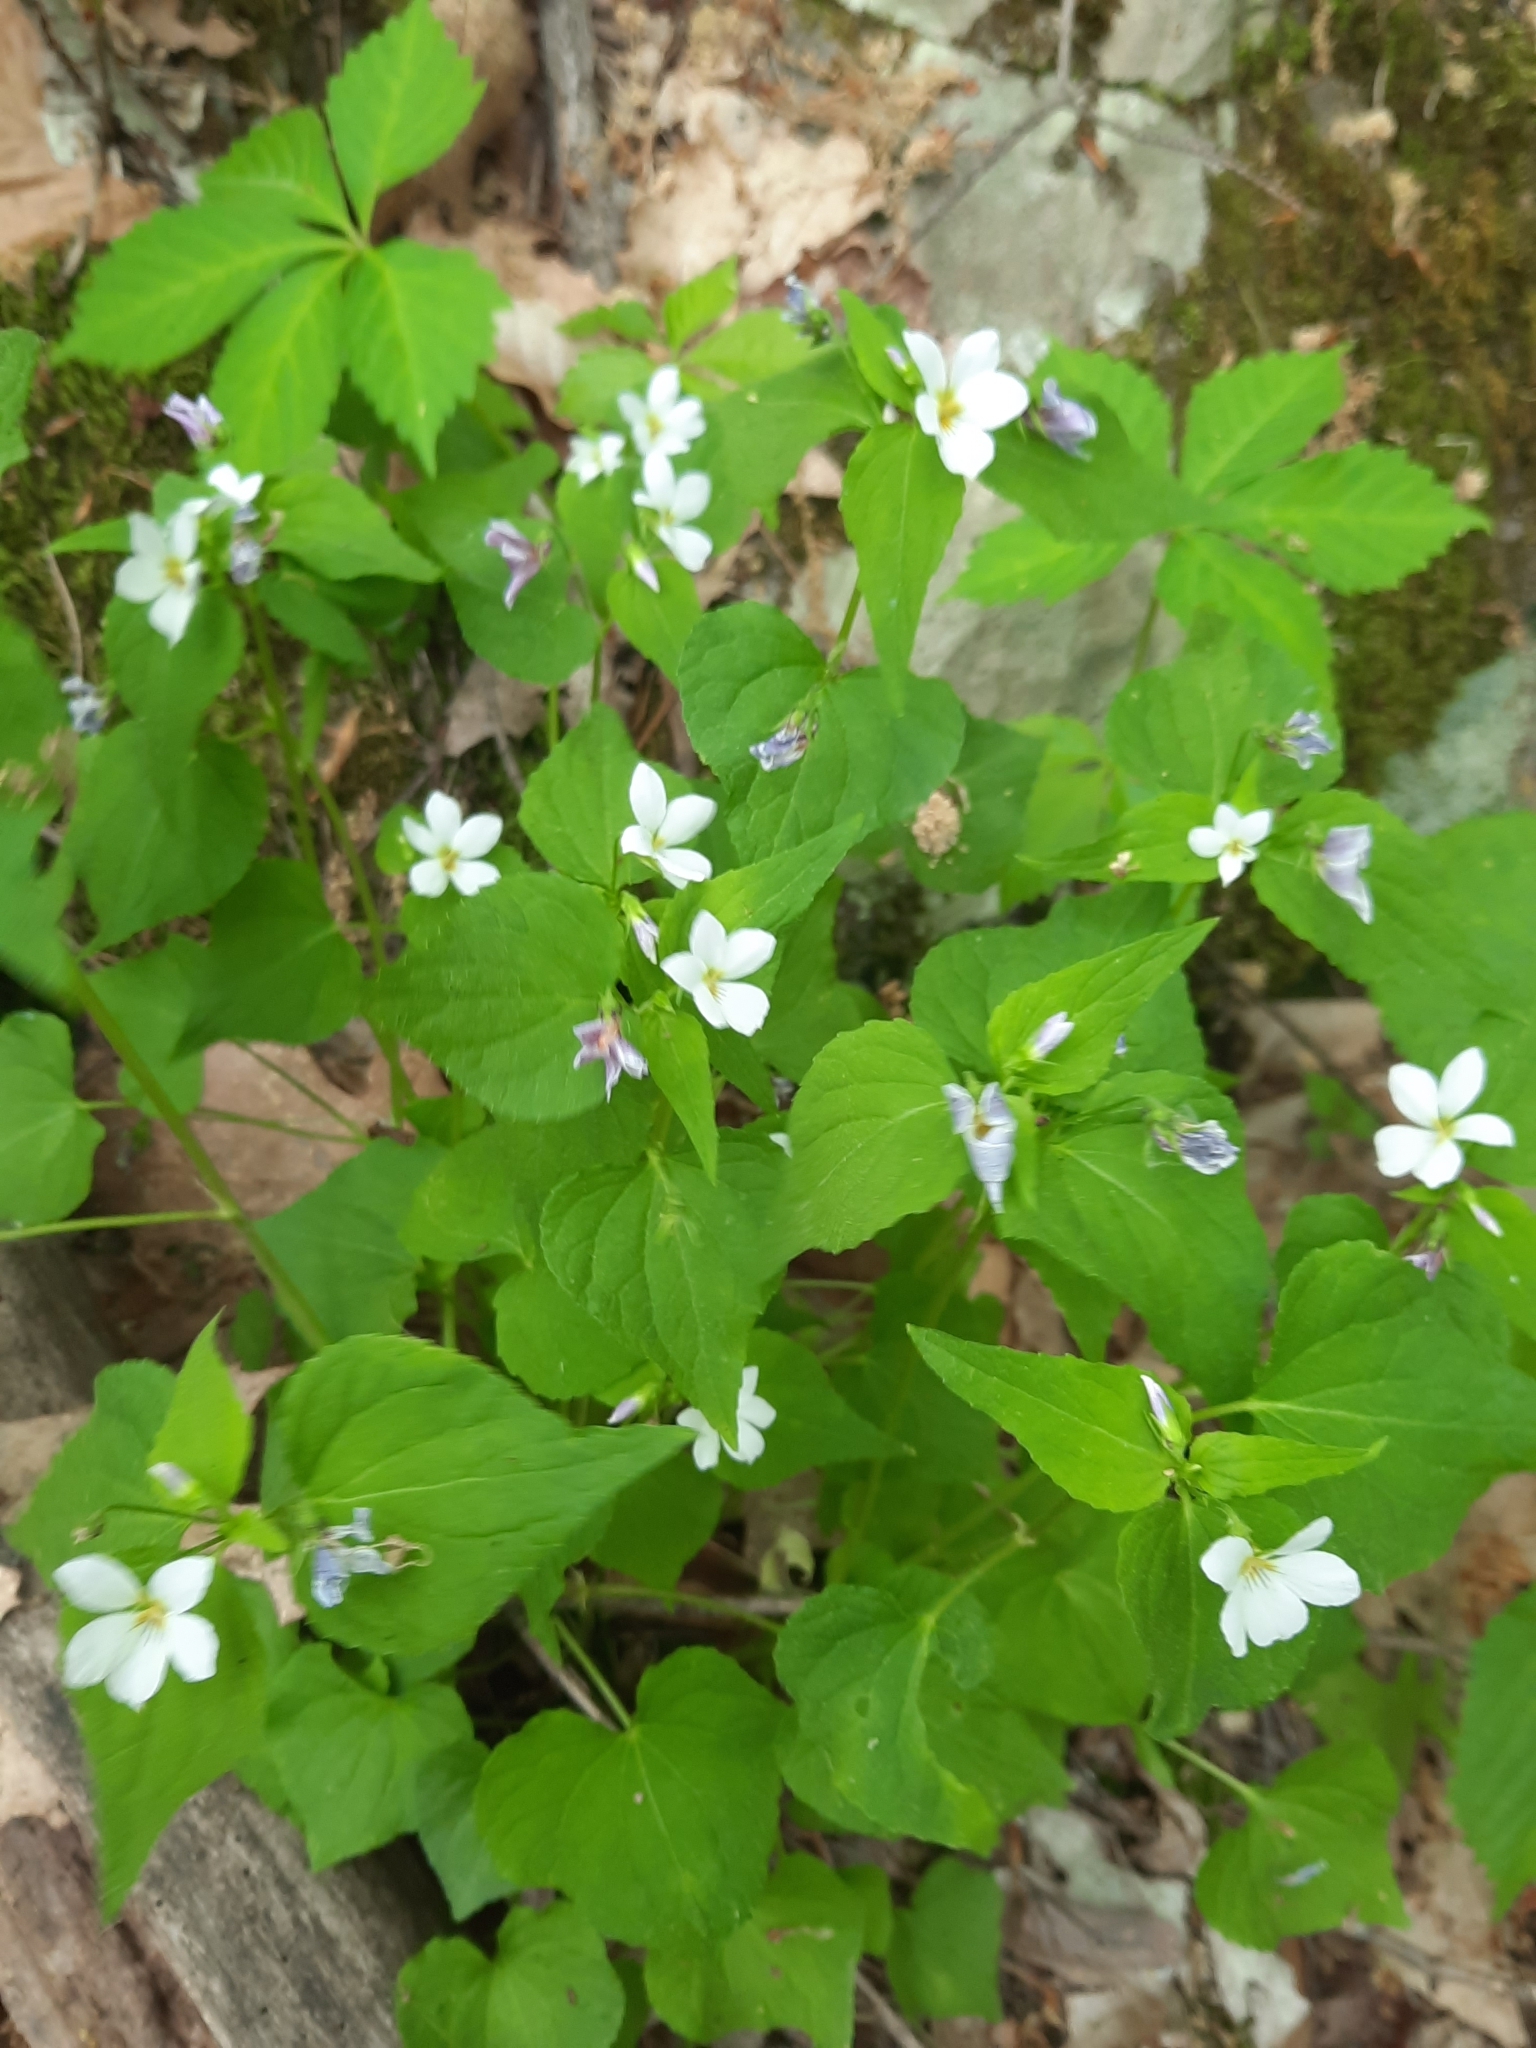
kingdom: Plantae
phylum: Tracheophyta
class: Magnoliopsida
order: Malpighiales
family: Violaceae
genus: Viola
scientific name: Viola canadensis
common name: Canada violet
